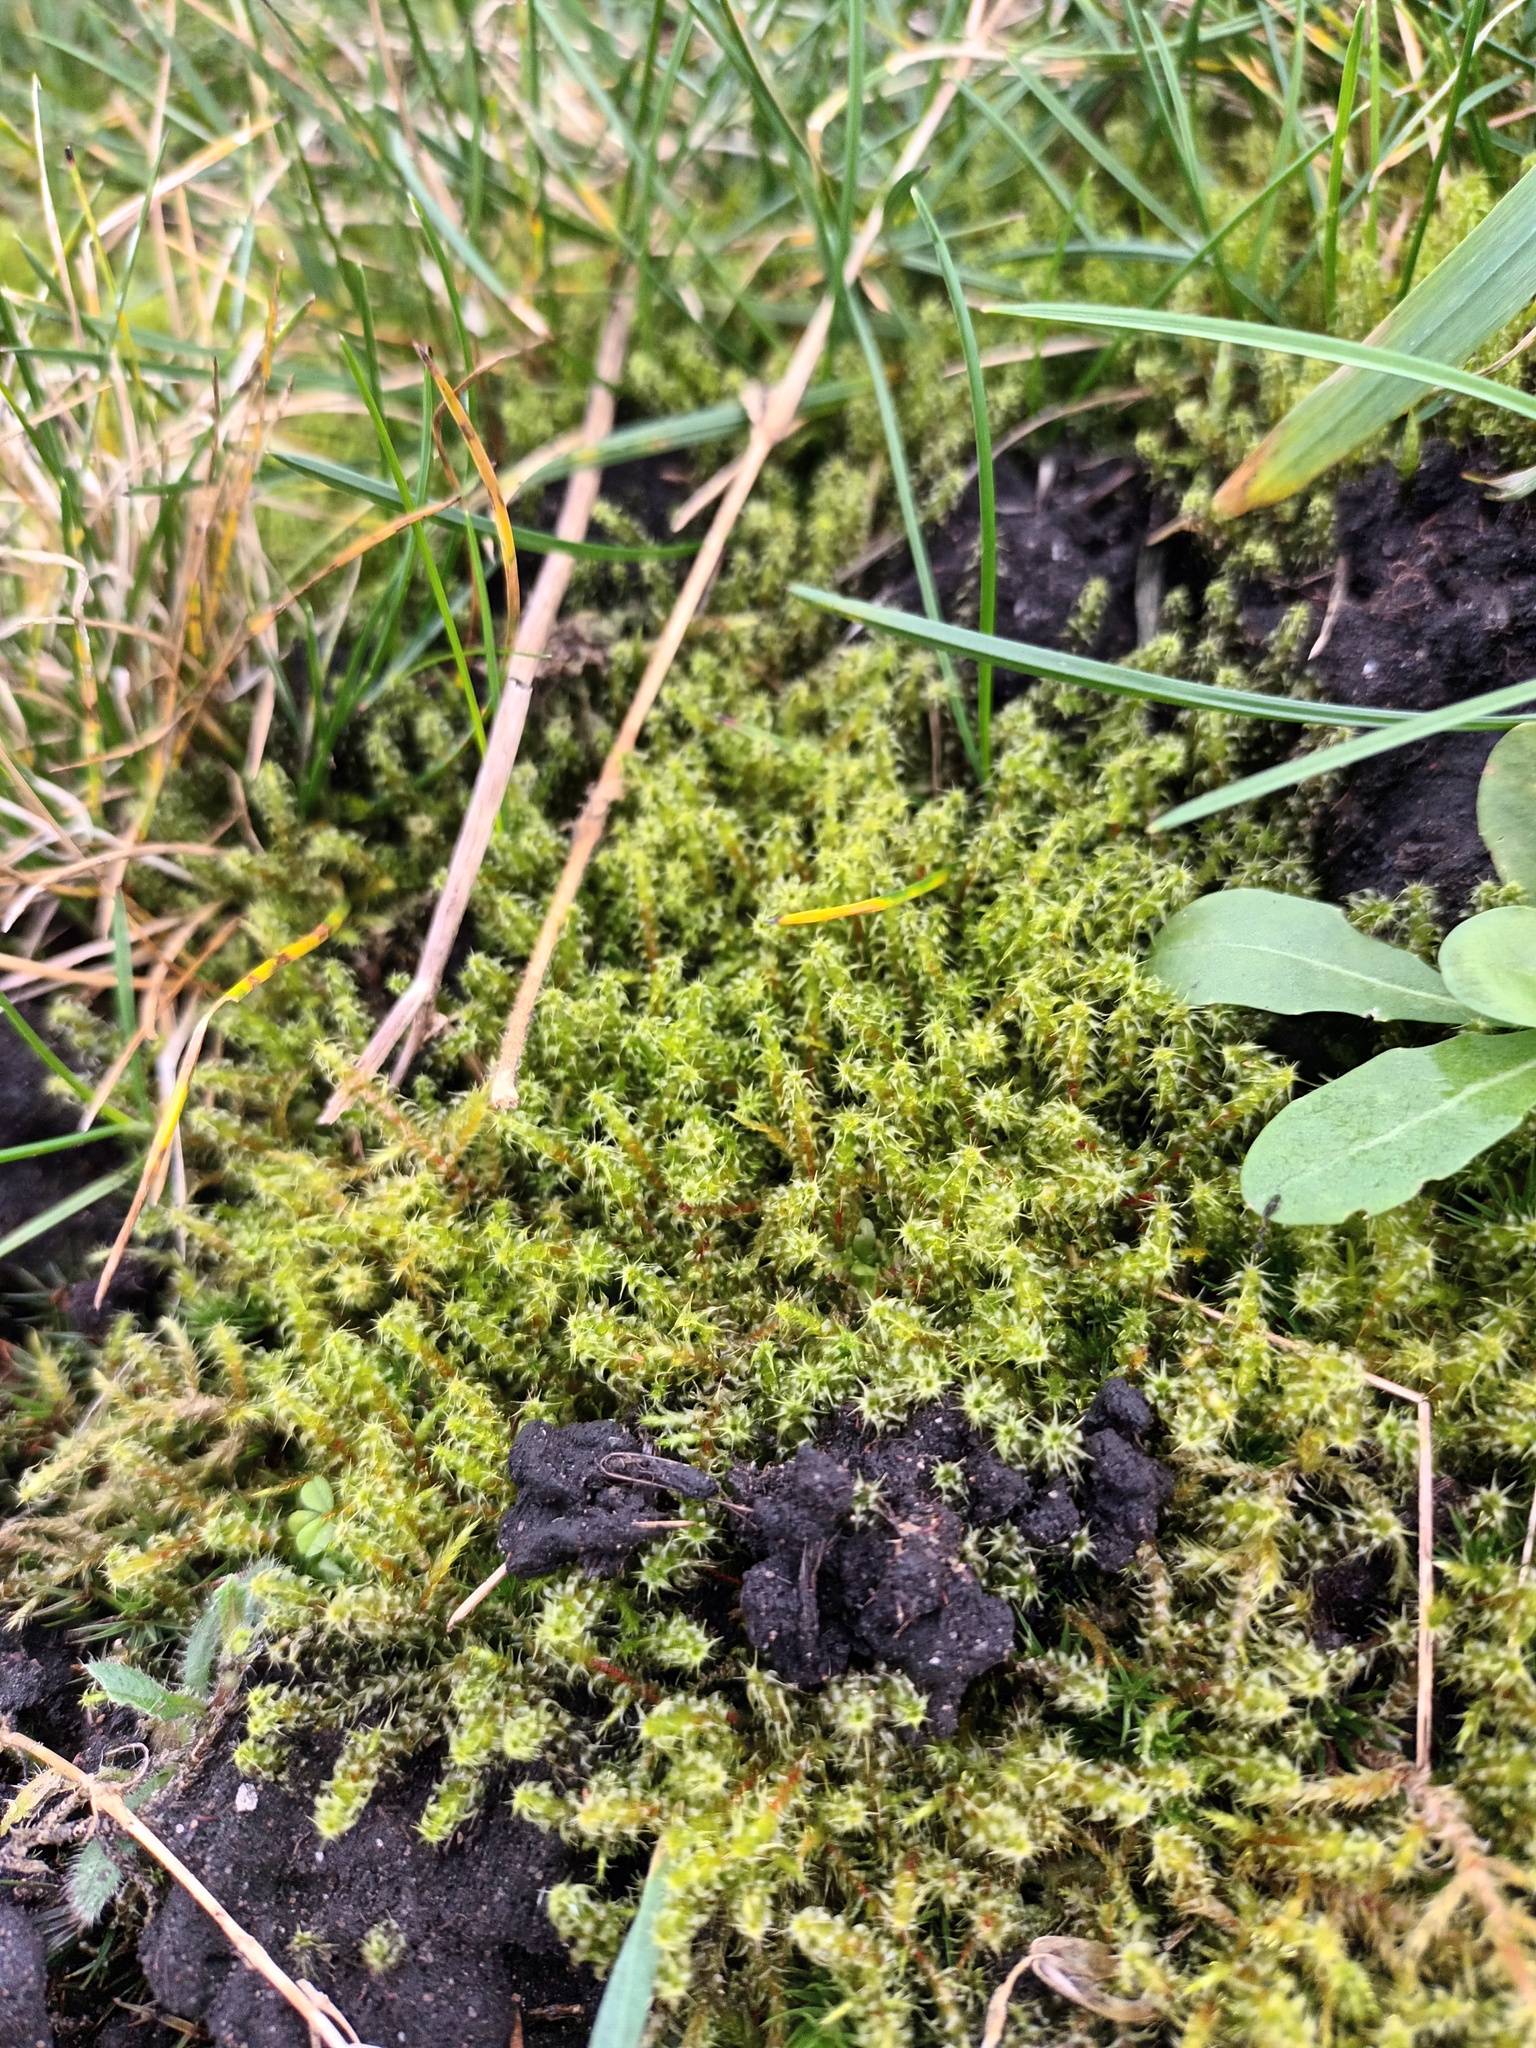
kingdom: Plantae
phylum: Bryophyta
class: Bryopsida
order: Hypnales
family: Hylocomiaceae
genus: Rhytidiadelphus
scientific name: Rhytidiadelphus squarrosus
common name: Springy turf-moss
